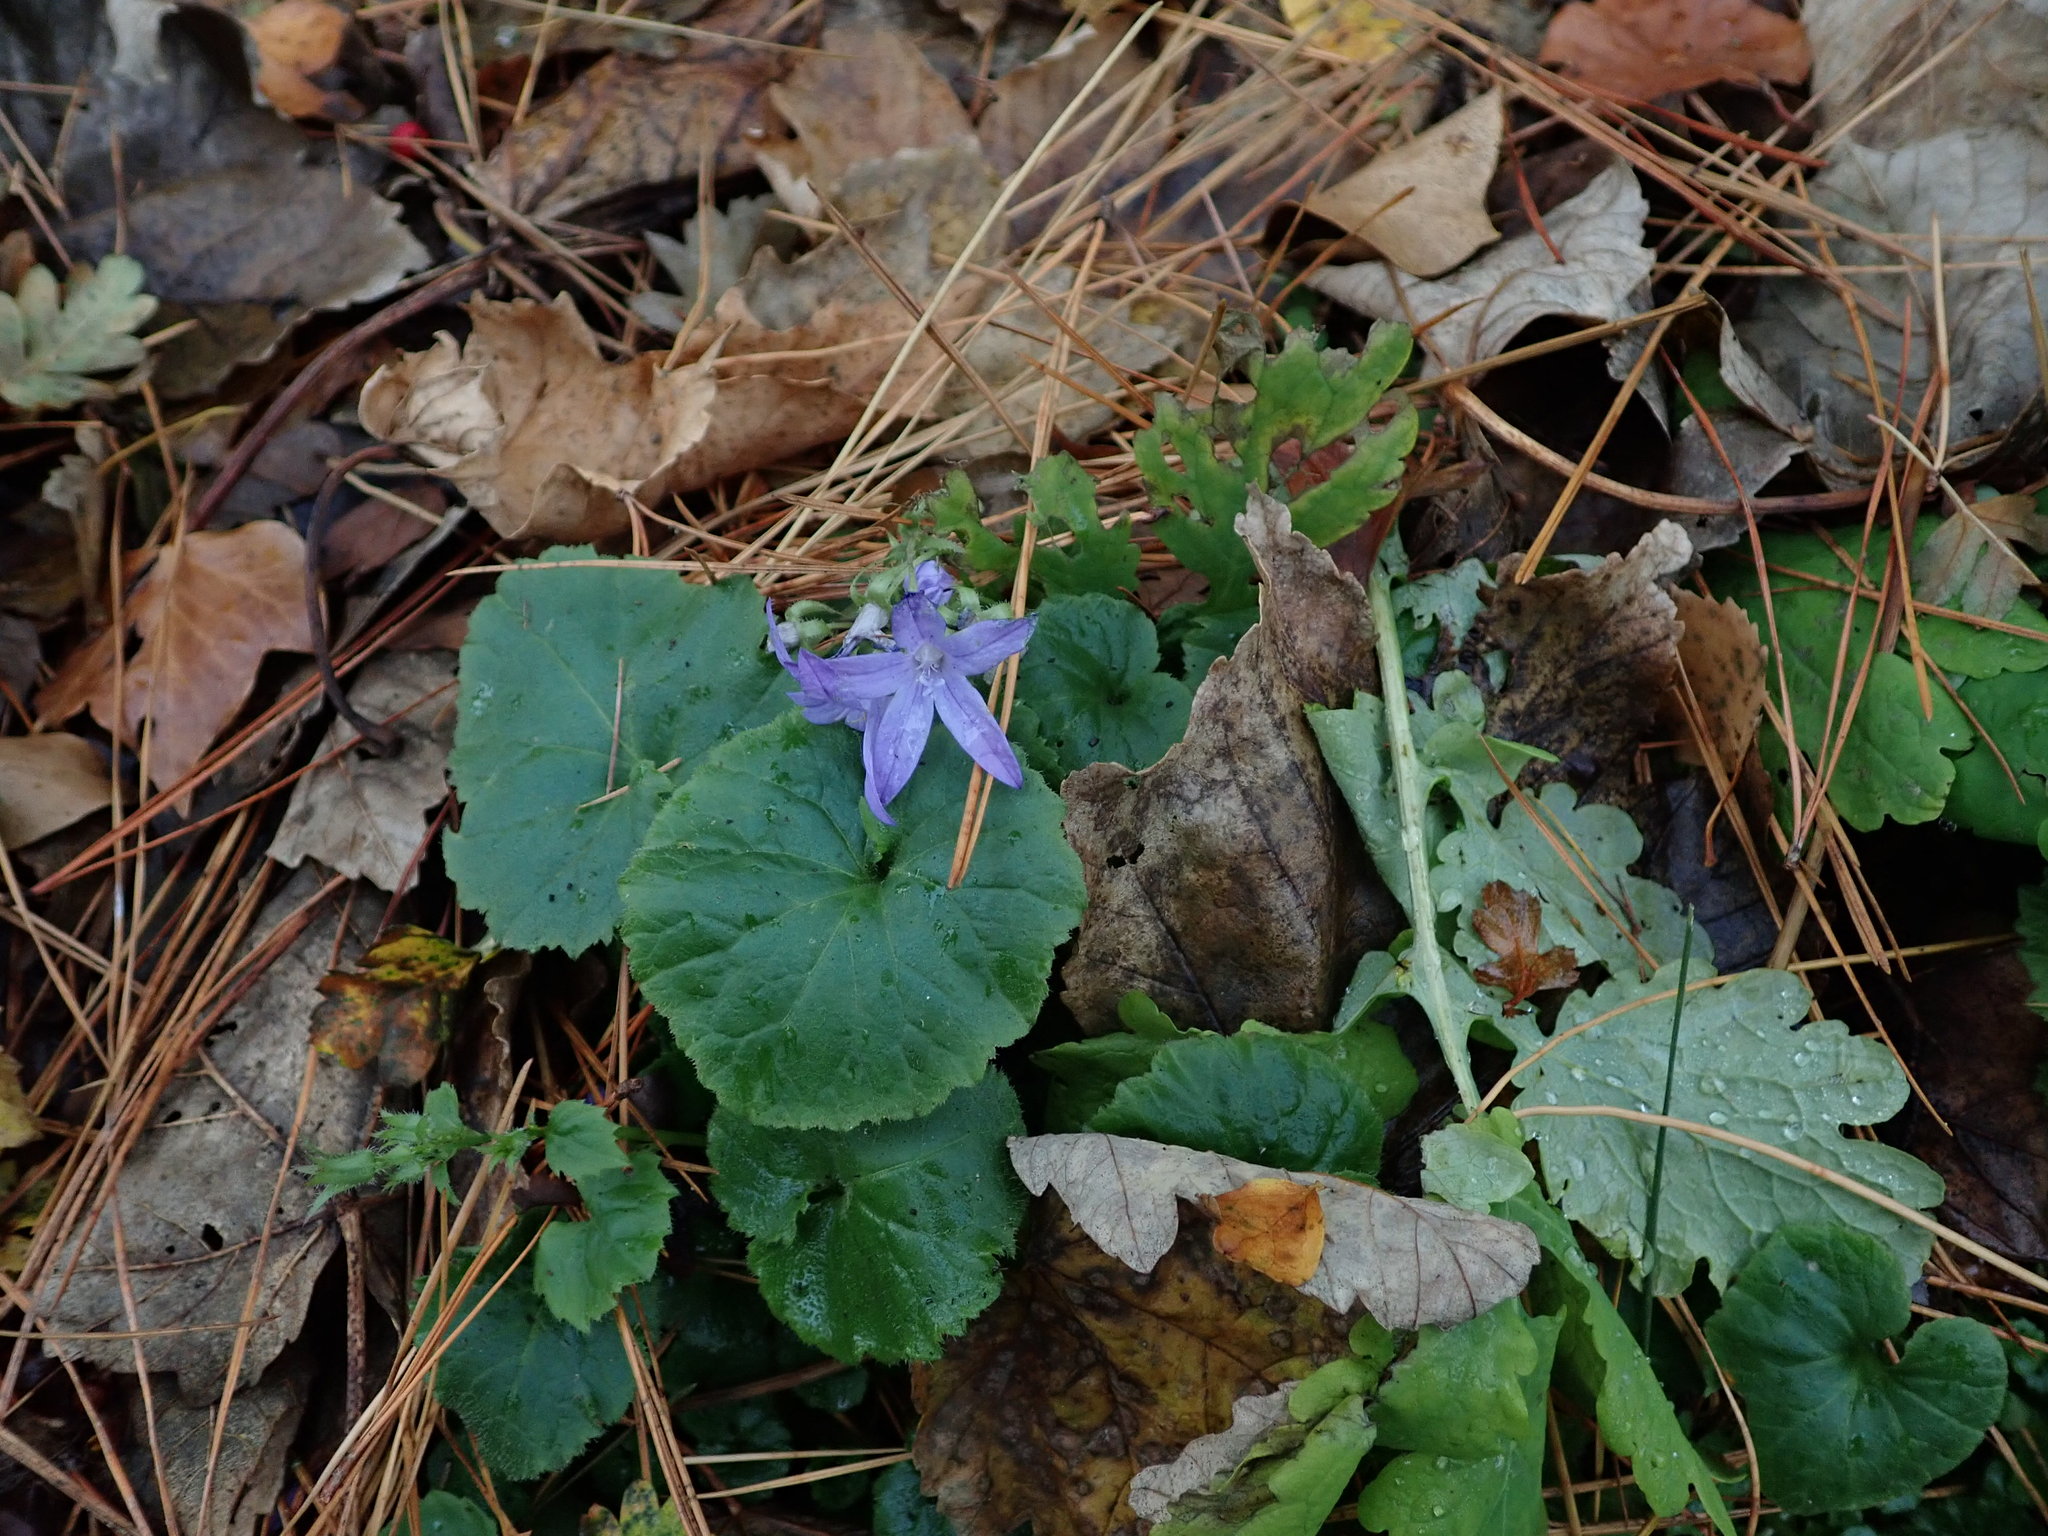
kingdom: Plantae
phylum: Tracheophyta
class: Magnoliopsida
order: Asterales
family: Campanulaceae
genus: Campanula
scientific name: Campanula poscharskyana
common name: Trailing bellflower
